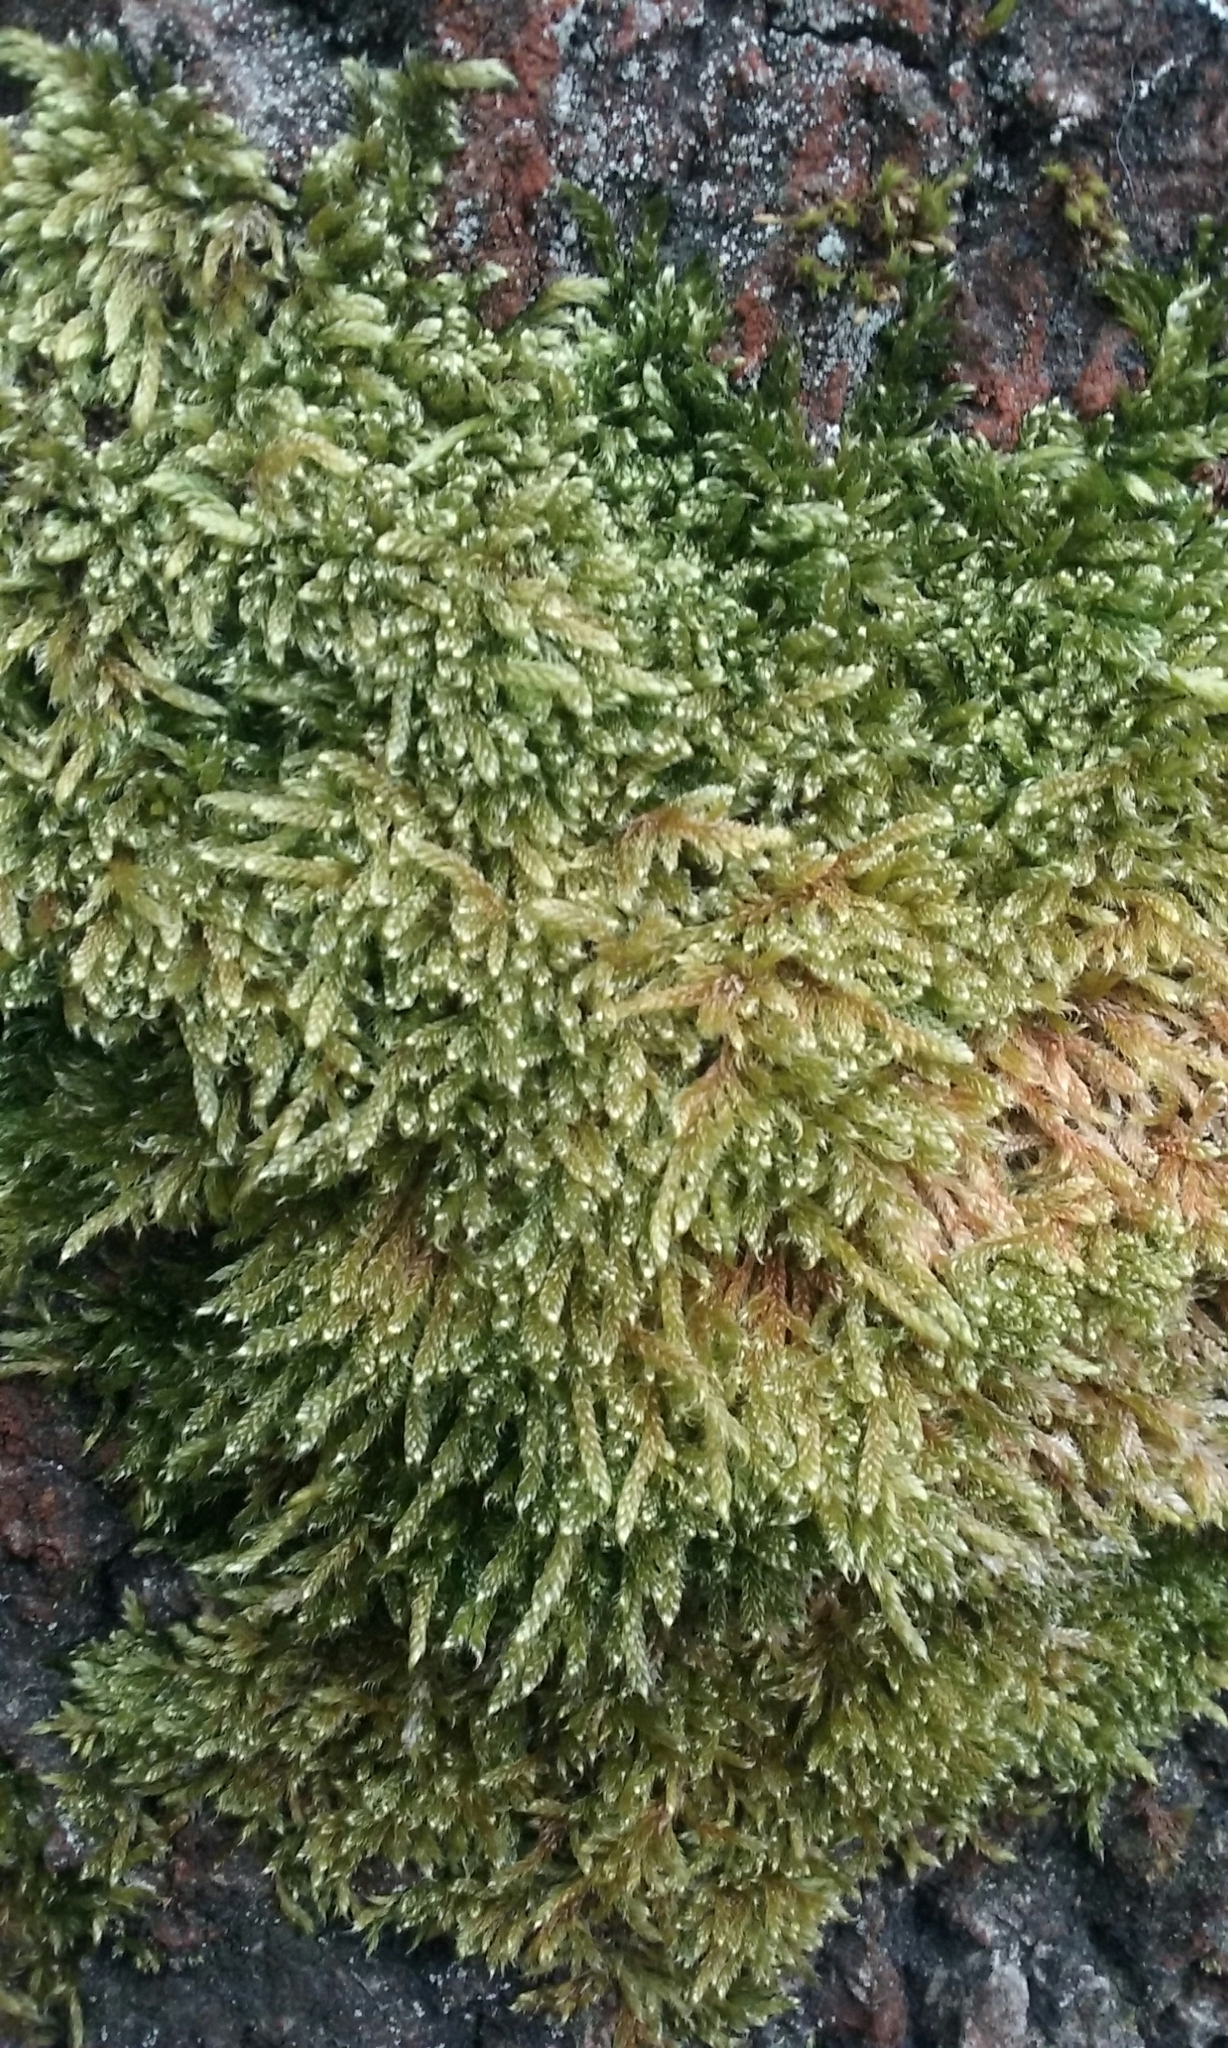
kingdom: Plantae
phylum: Bryophyta
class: Bryopsida
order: Hypnales
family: Hypnaceae
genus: Hypnum
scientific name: Hypnum cupressiforme
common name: Cypress-leaved plait-moss
